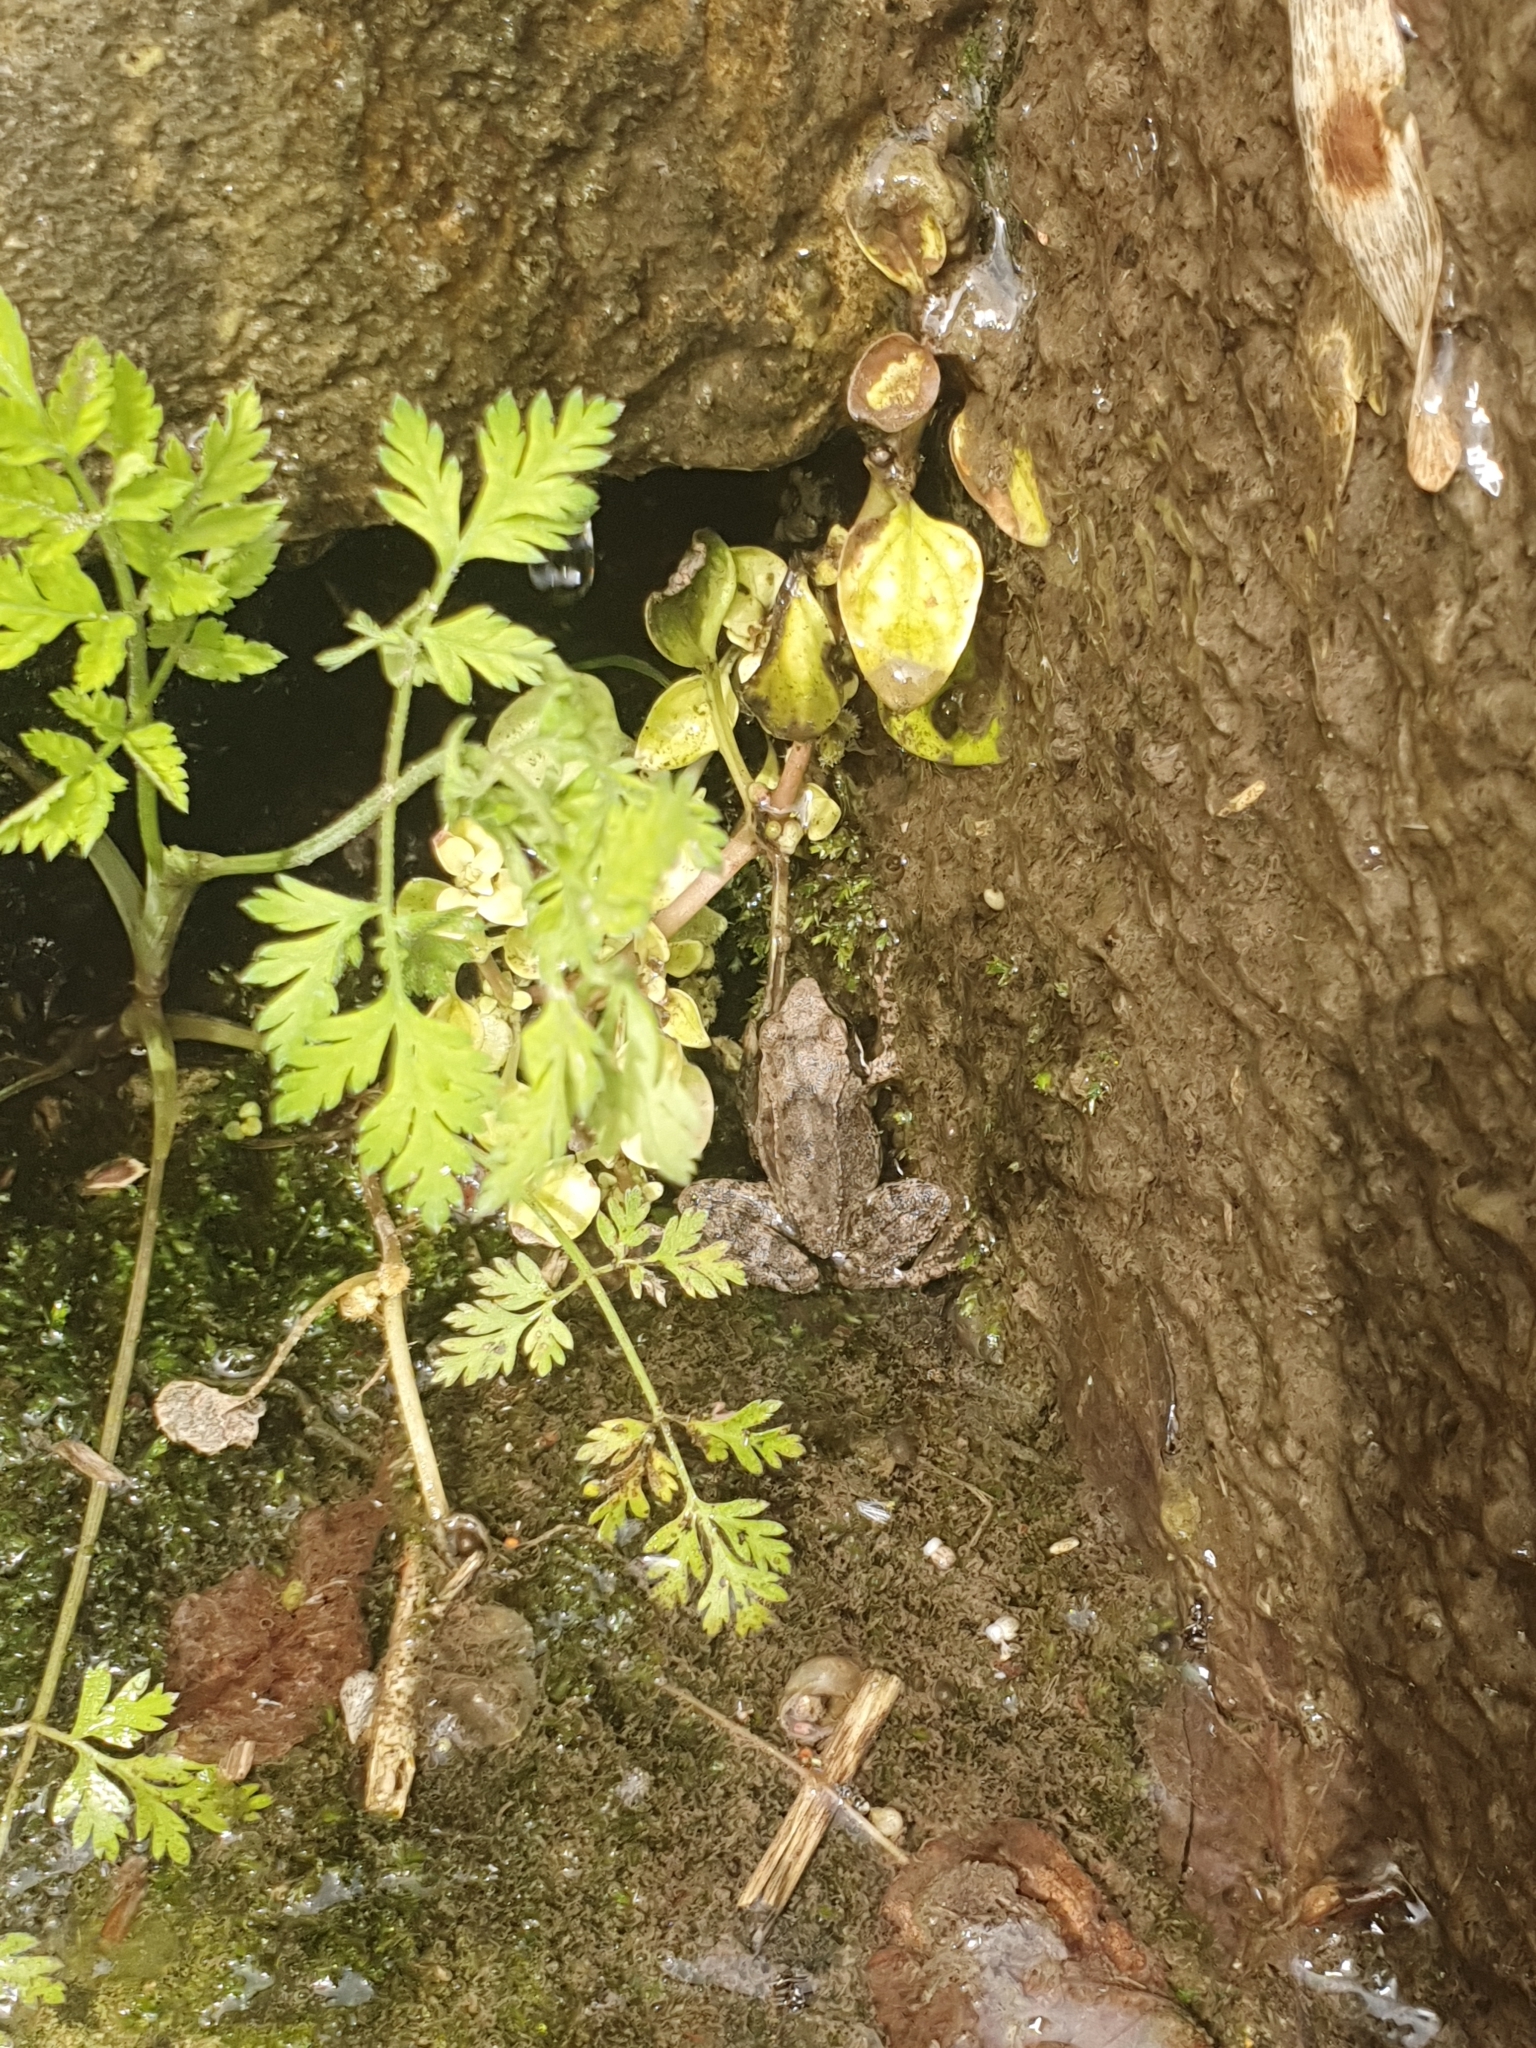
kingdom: Animalia
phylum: Chordata
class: Amphibia
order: Anura
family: Ranidae
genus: Rana
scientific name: Rana italica
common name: Italian stream frog
